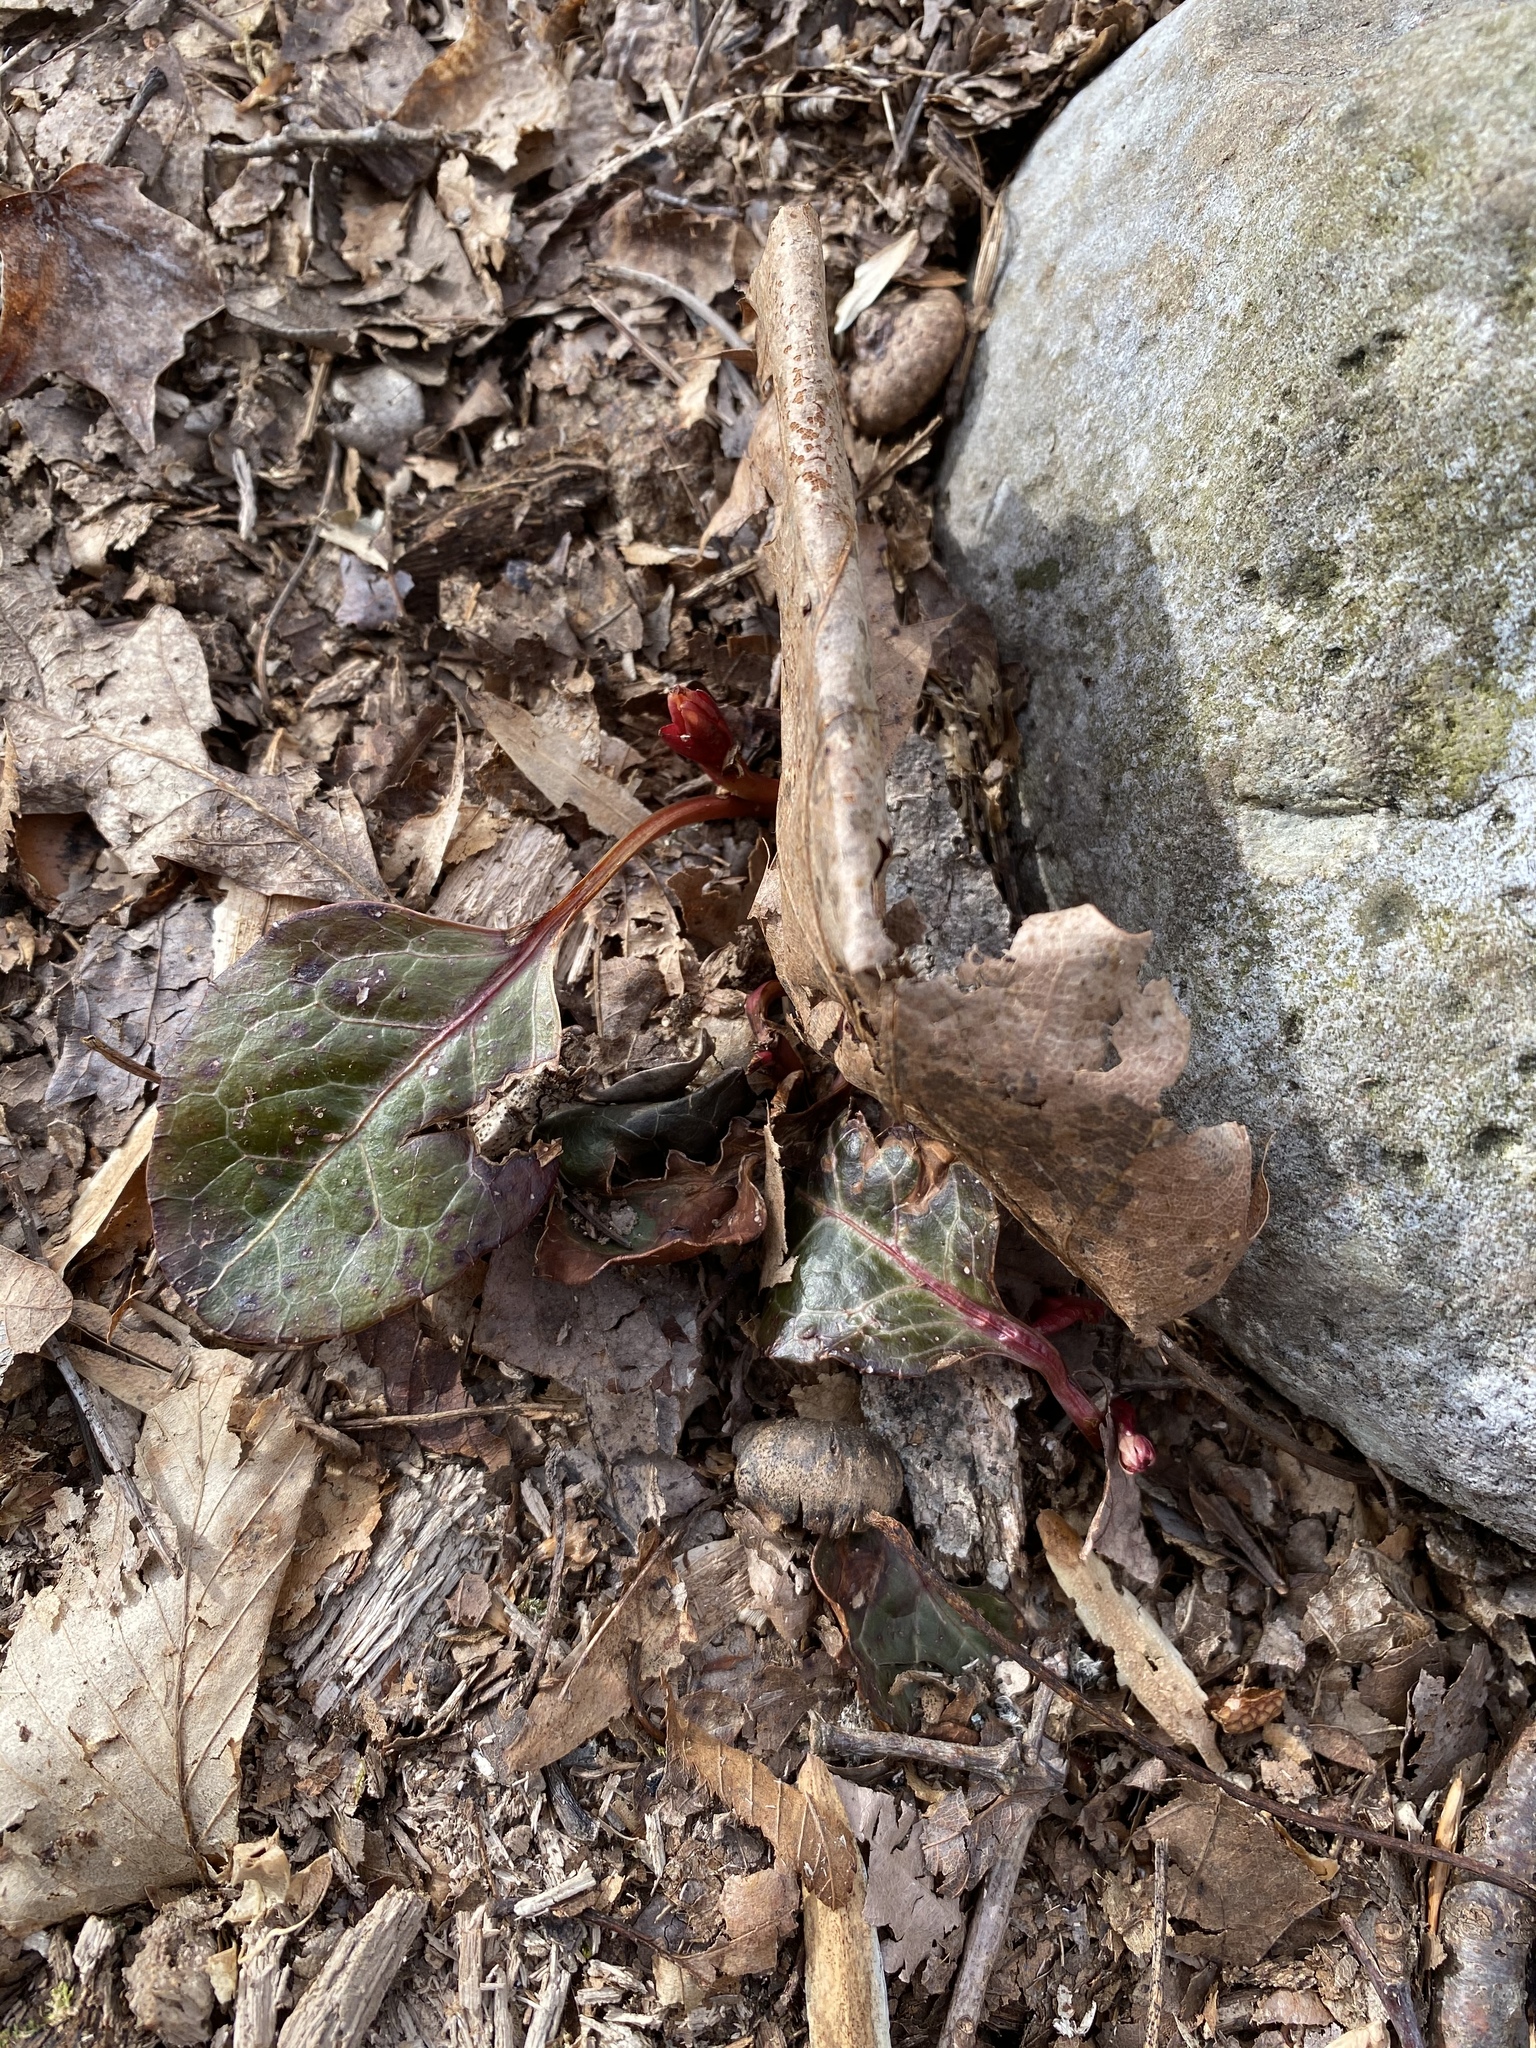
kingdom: Plantae
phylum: Tracheophyta
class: Magnoliopsida
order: Ericales
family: Ericaceae
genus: Pyrola
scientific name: Pyrola americana
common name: American wintergreen
